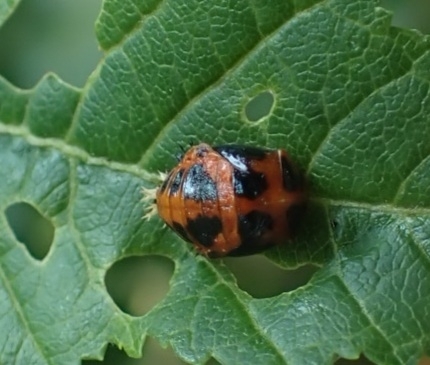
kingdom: Animalia
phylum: Arthropoda
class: Insecta
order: Coleoptera
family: Coccinellidae
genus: Harmonia
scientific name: Harmonia axyridis
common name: Harlequin ladybird
